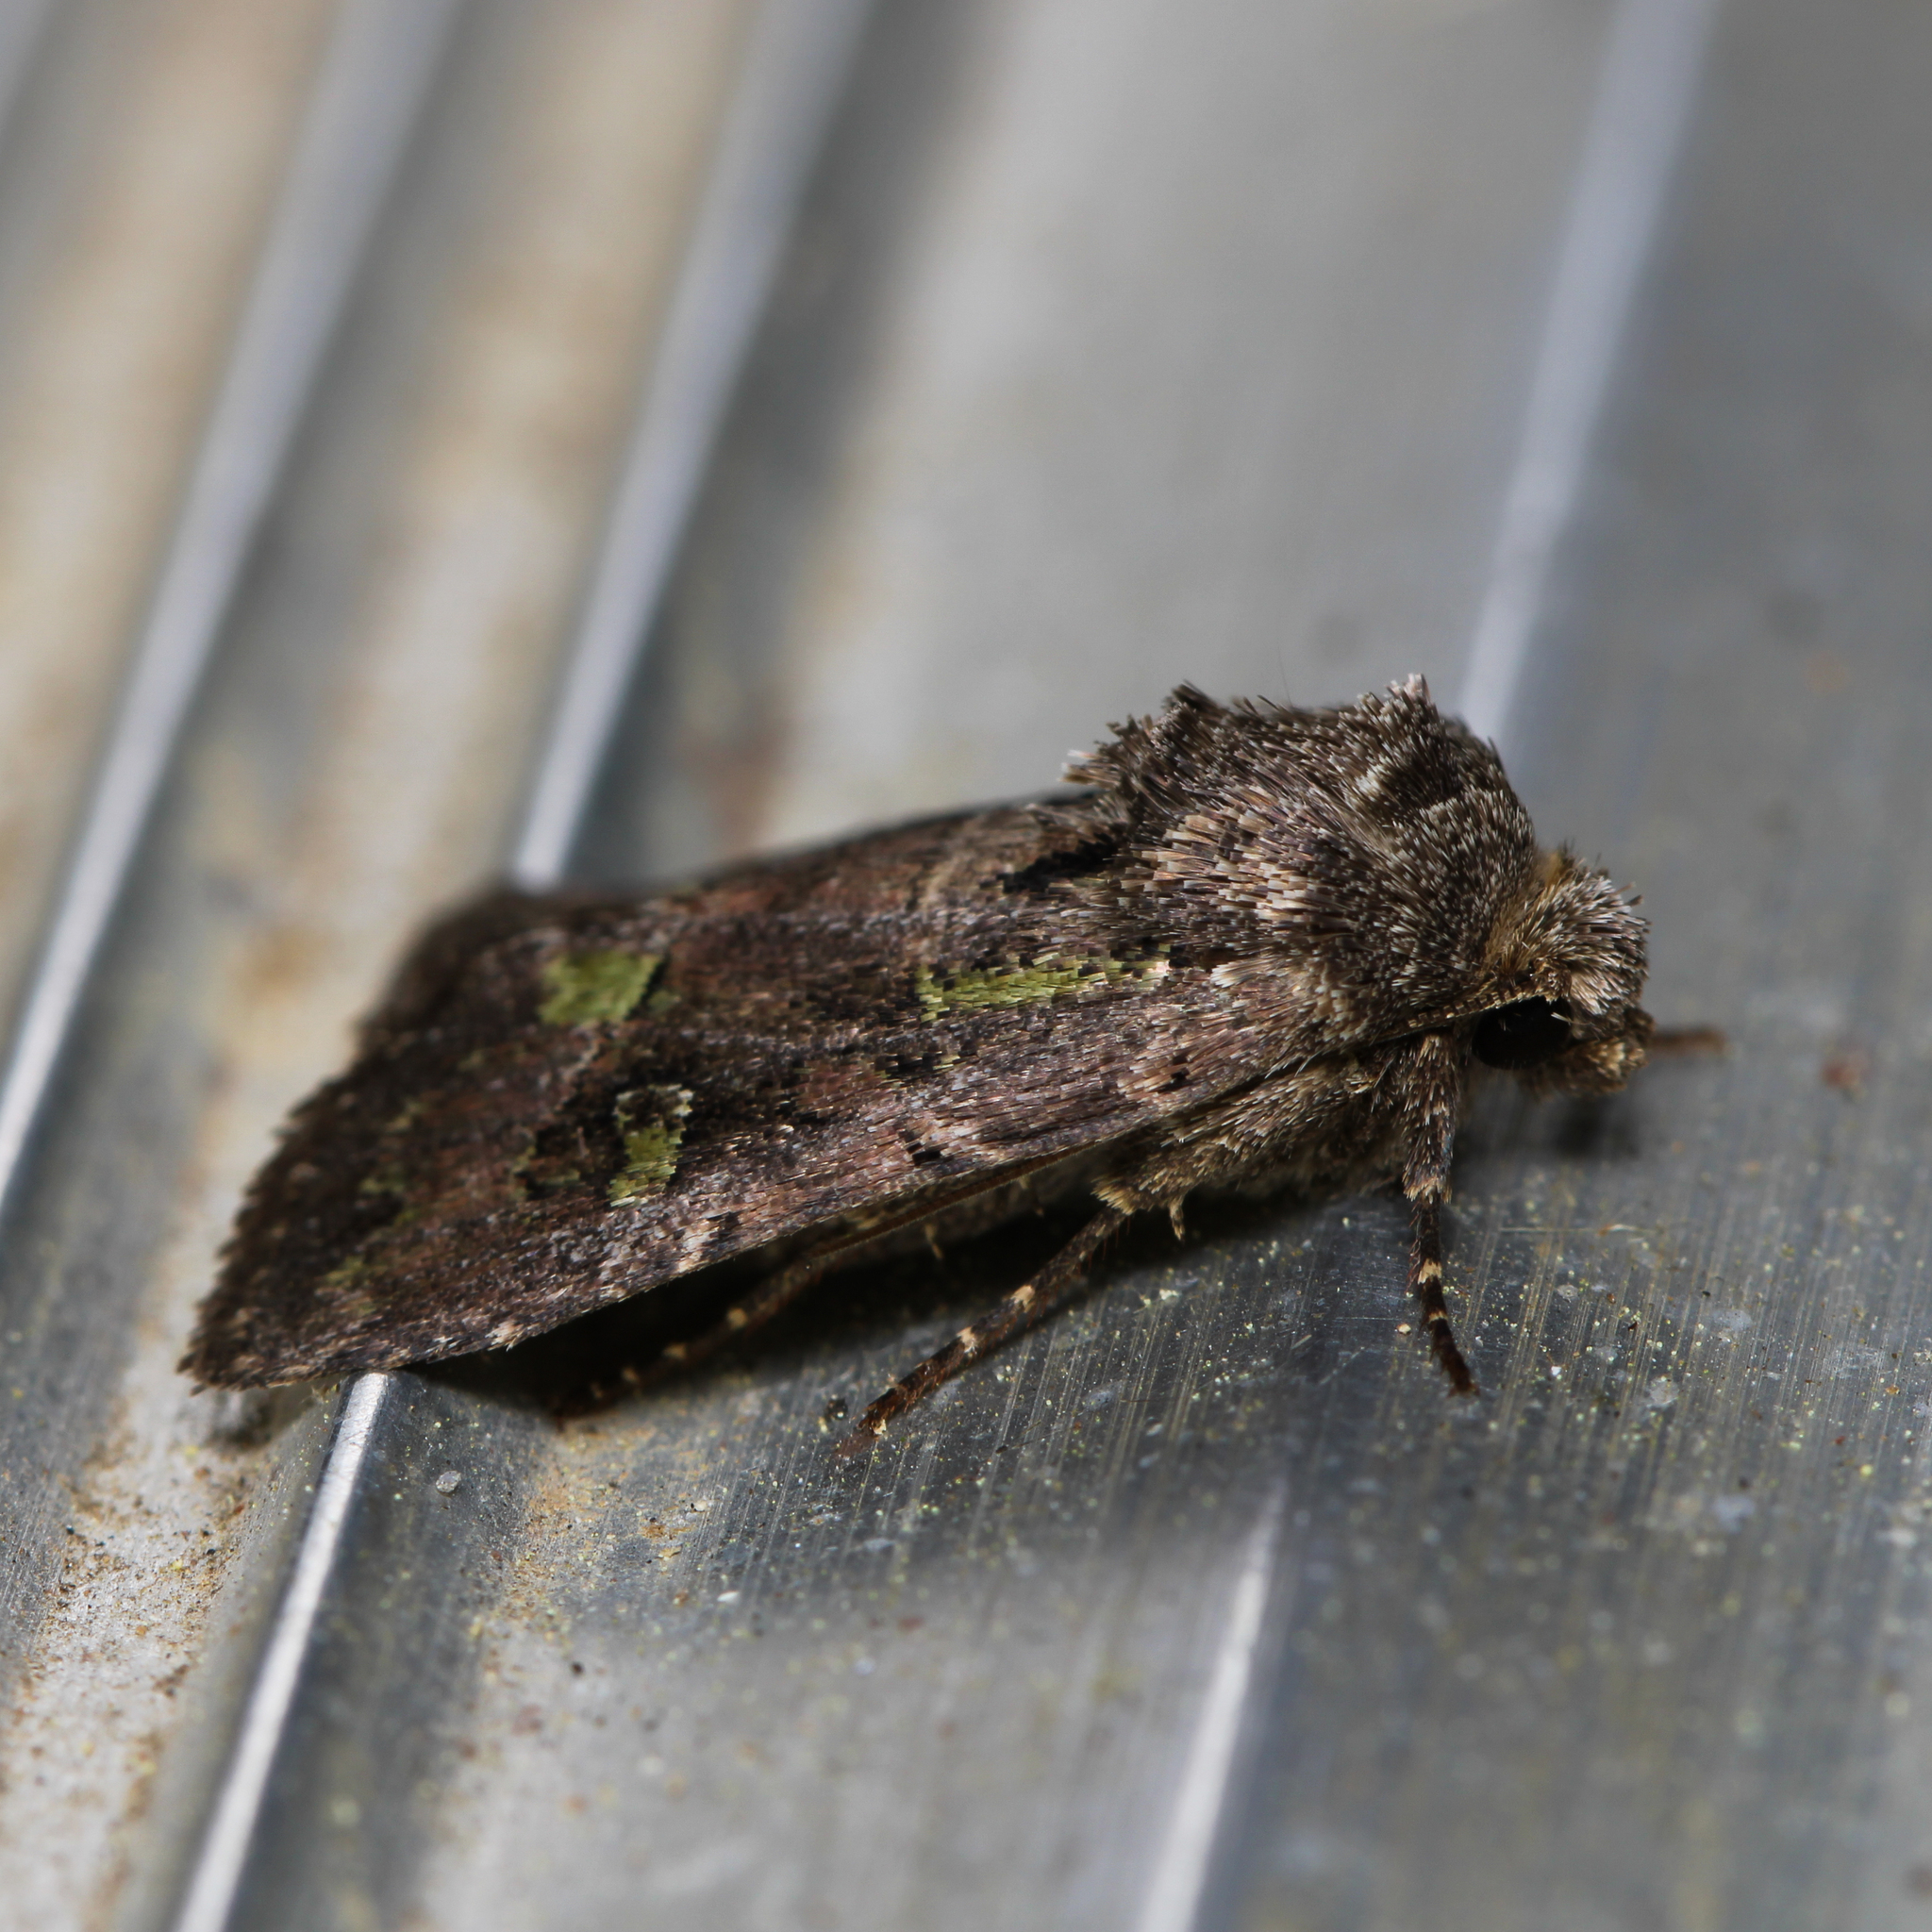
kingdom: Animalia
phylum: Arthropoda
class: Insecta
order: Lepidoptera
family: Noctuidae
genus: Lacinipolia
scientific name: Lacinipolia renigera
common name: Kidney-spotted minor
